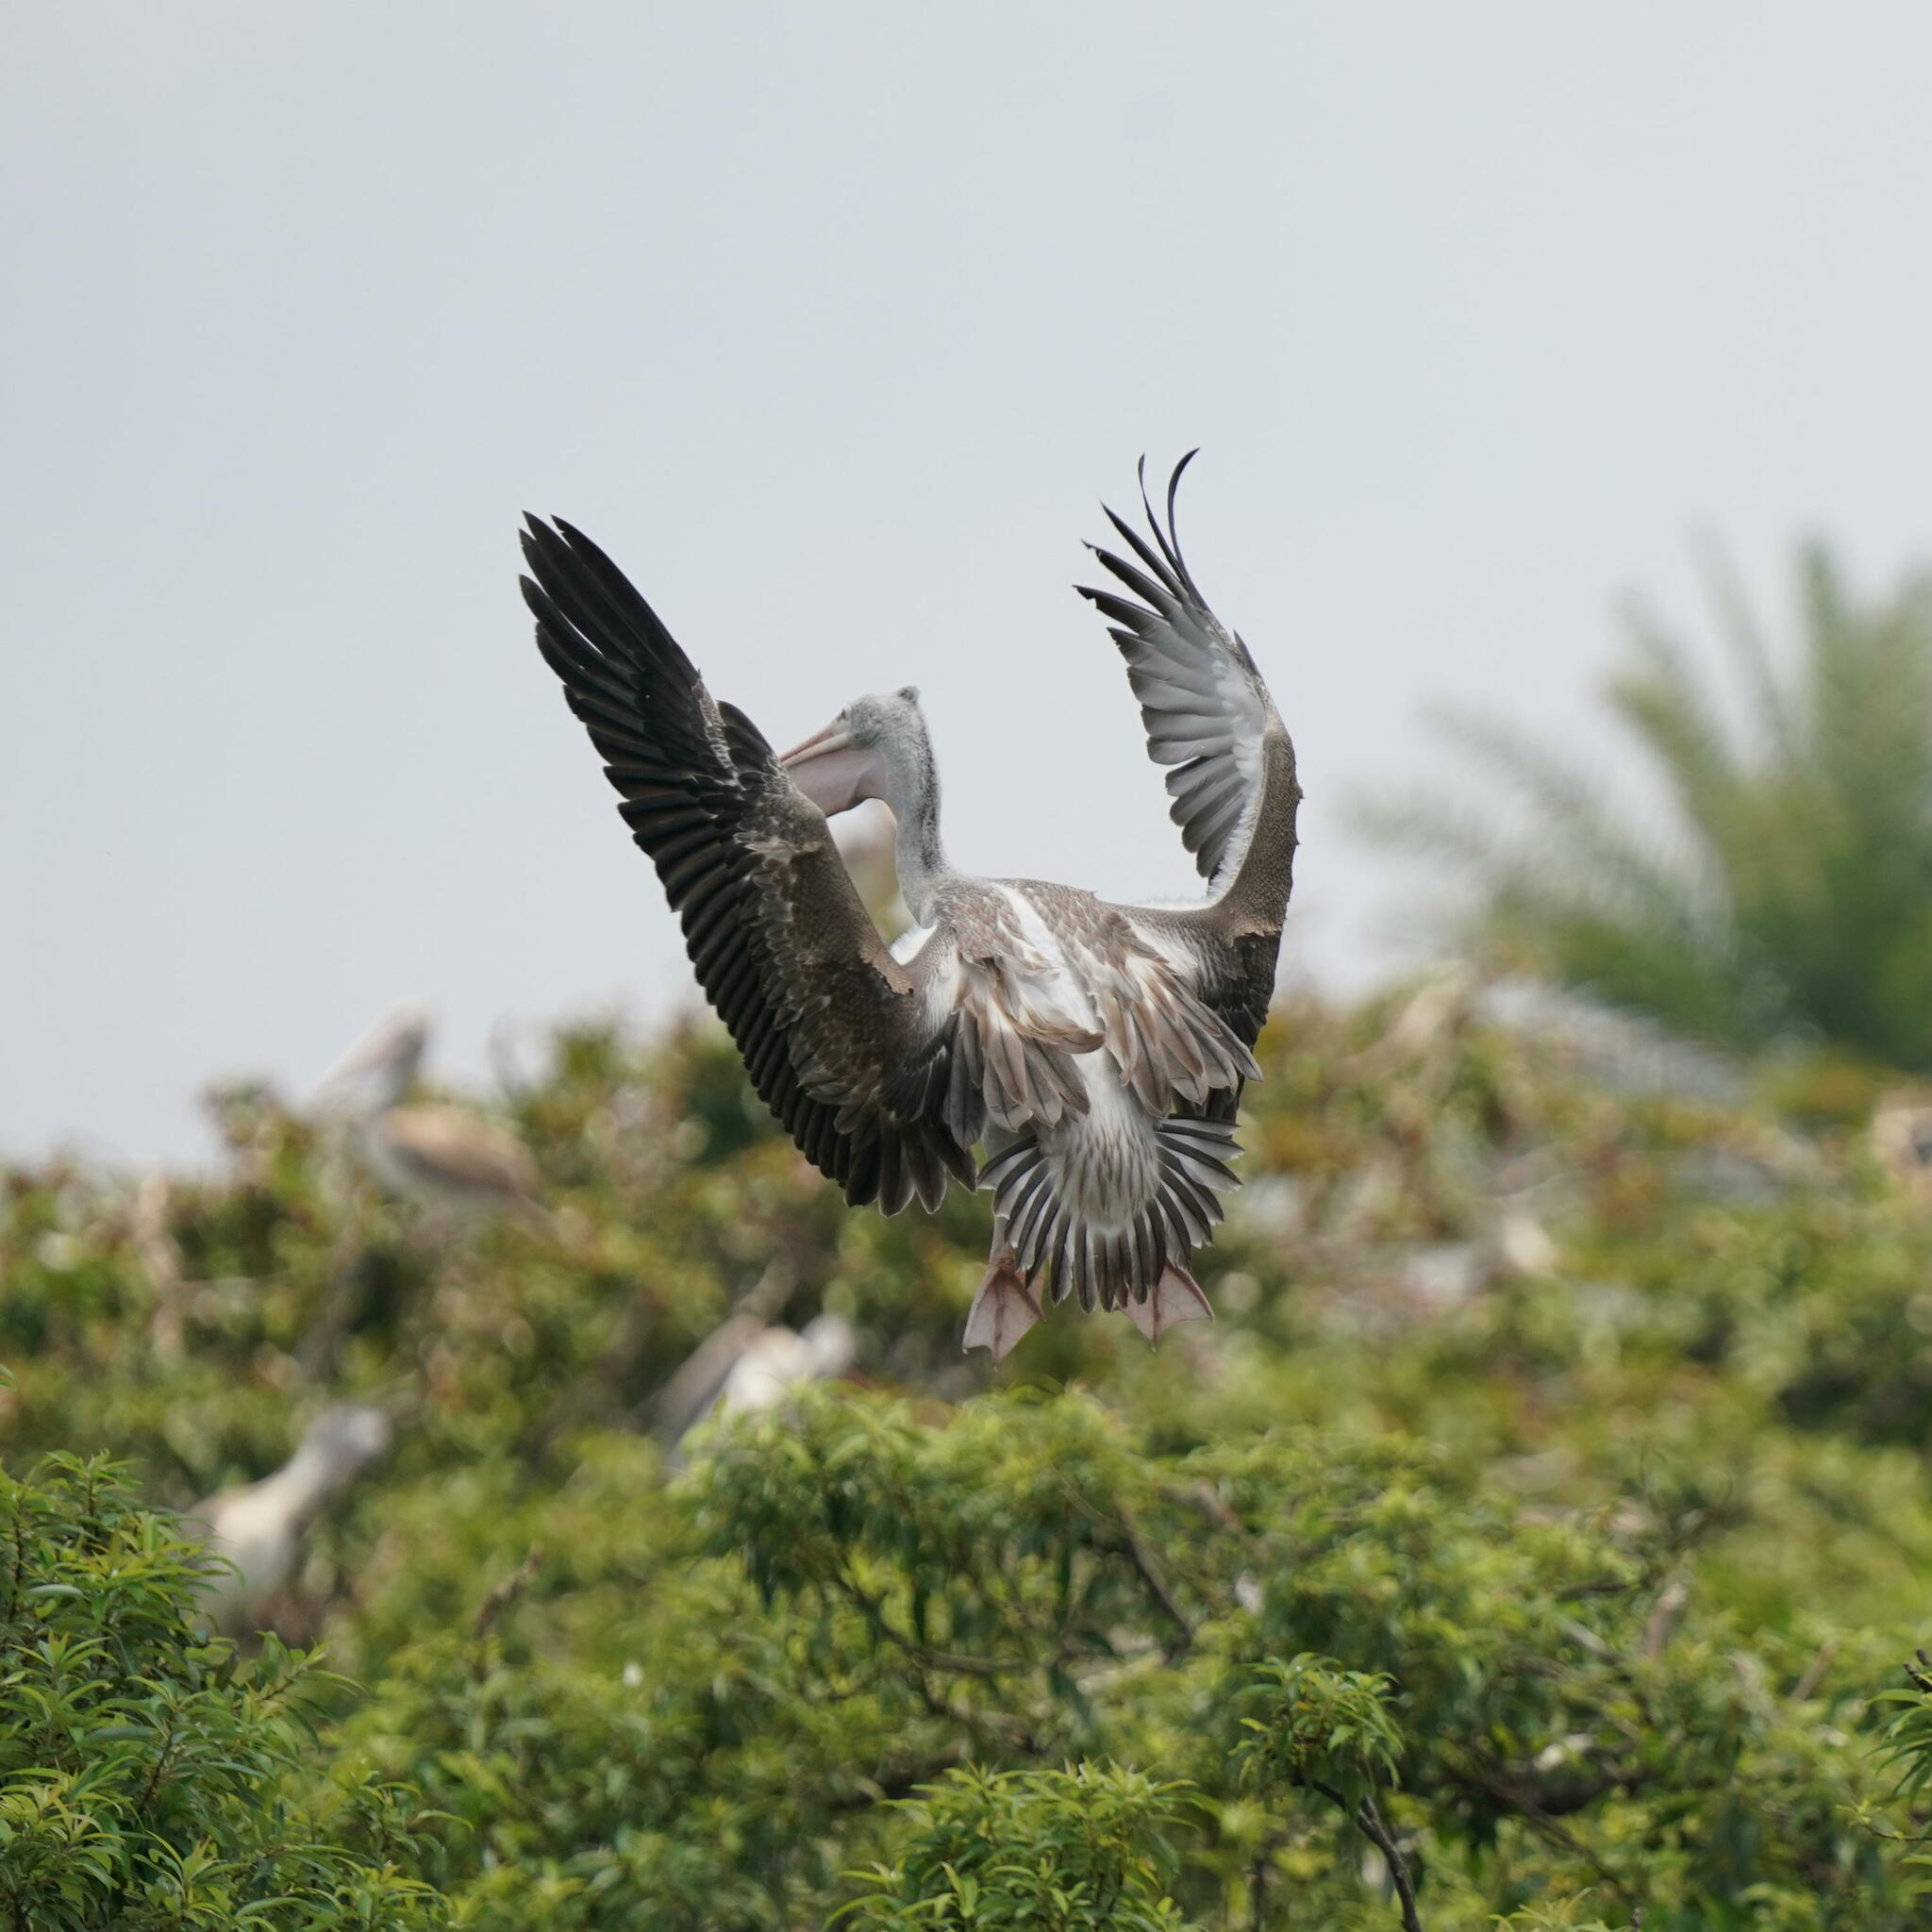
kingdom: Animalia
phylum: Chordata
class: Aves
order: Pelecaniformes
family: Pelecanidae
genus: Pelecanus
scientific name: Pelecanus philippensis
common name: Spot-billed pelican
